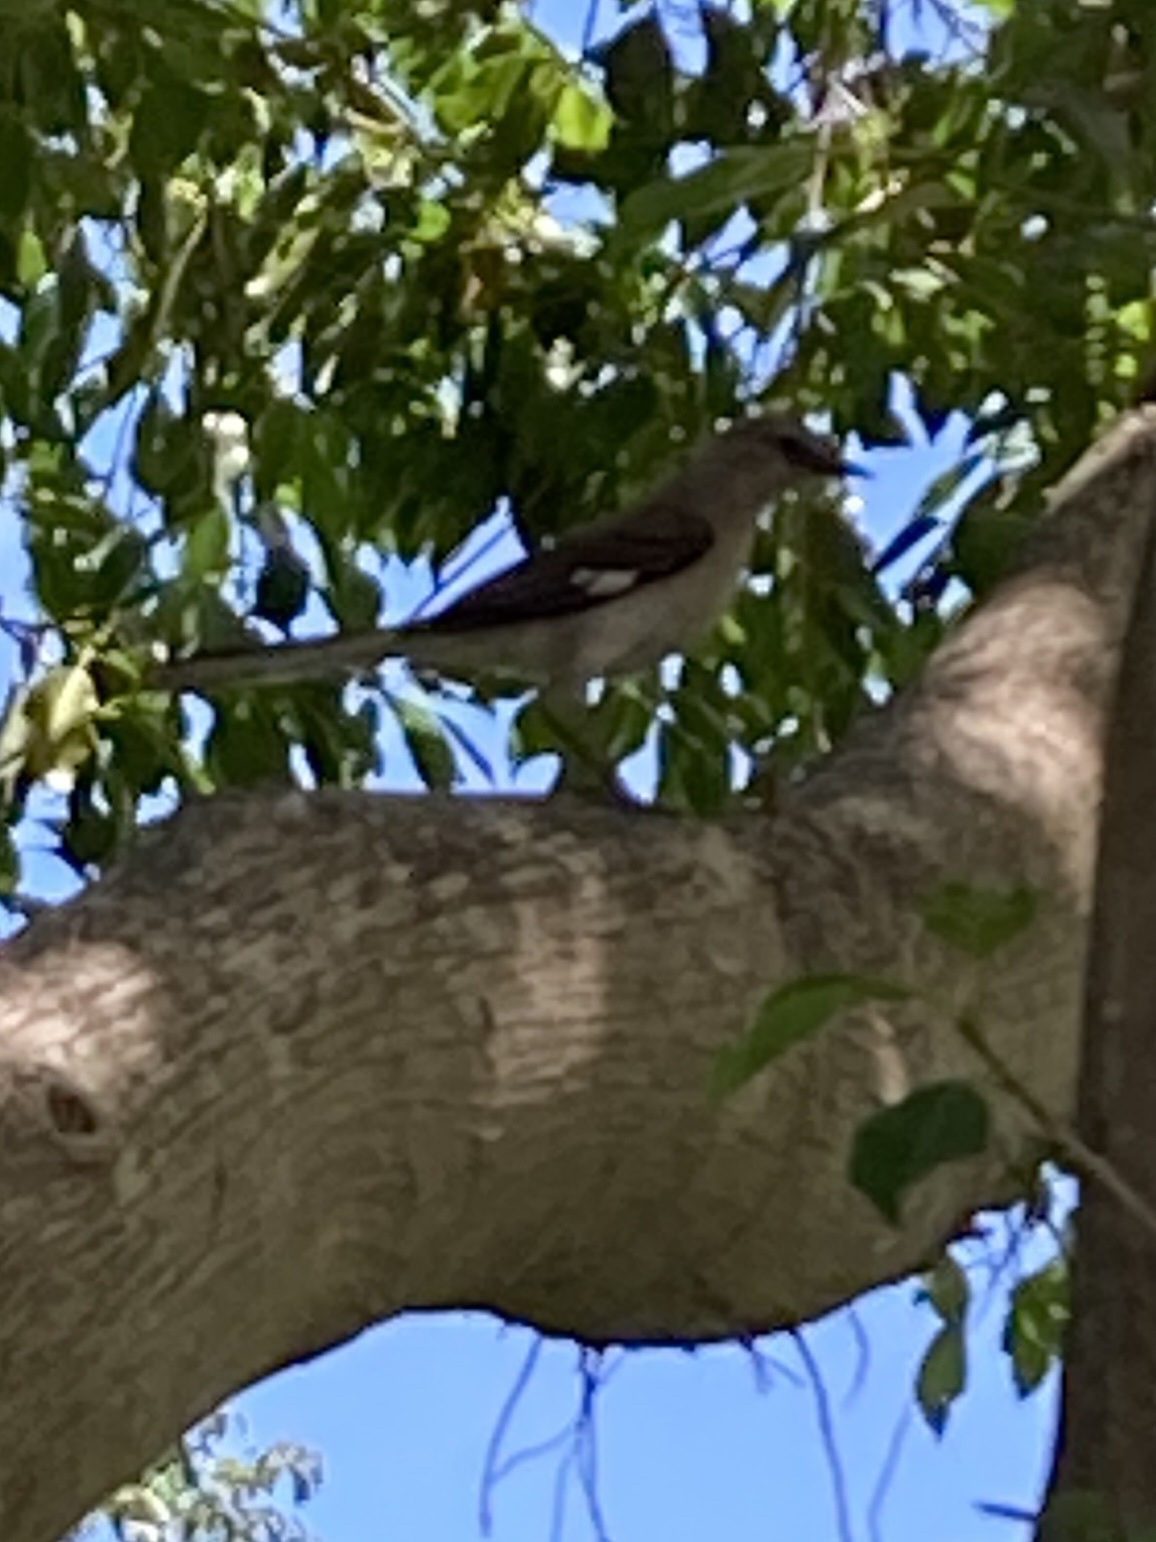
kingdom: Animalia
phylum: Chordata
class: Aves
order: Passeriformes
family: Mimidae
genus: Mimus
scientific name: Mimus polyglottos
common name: Northern mockingbird
